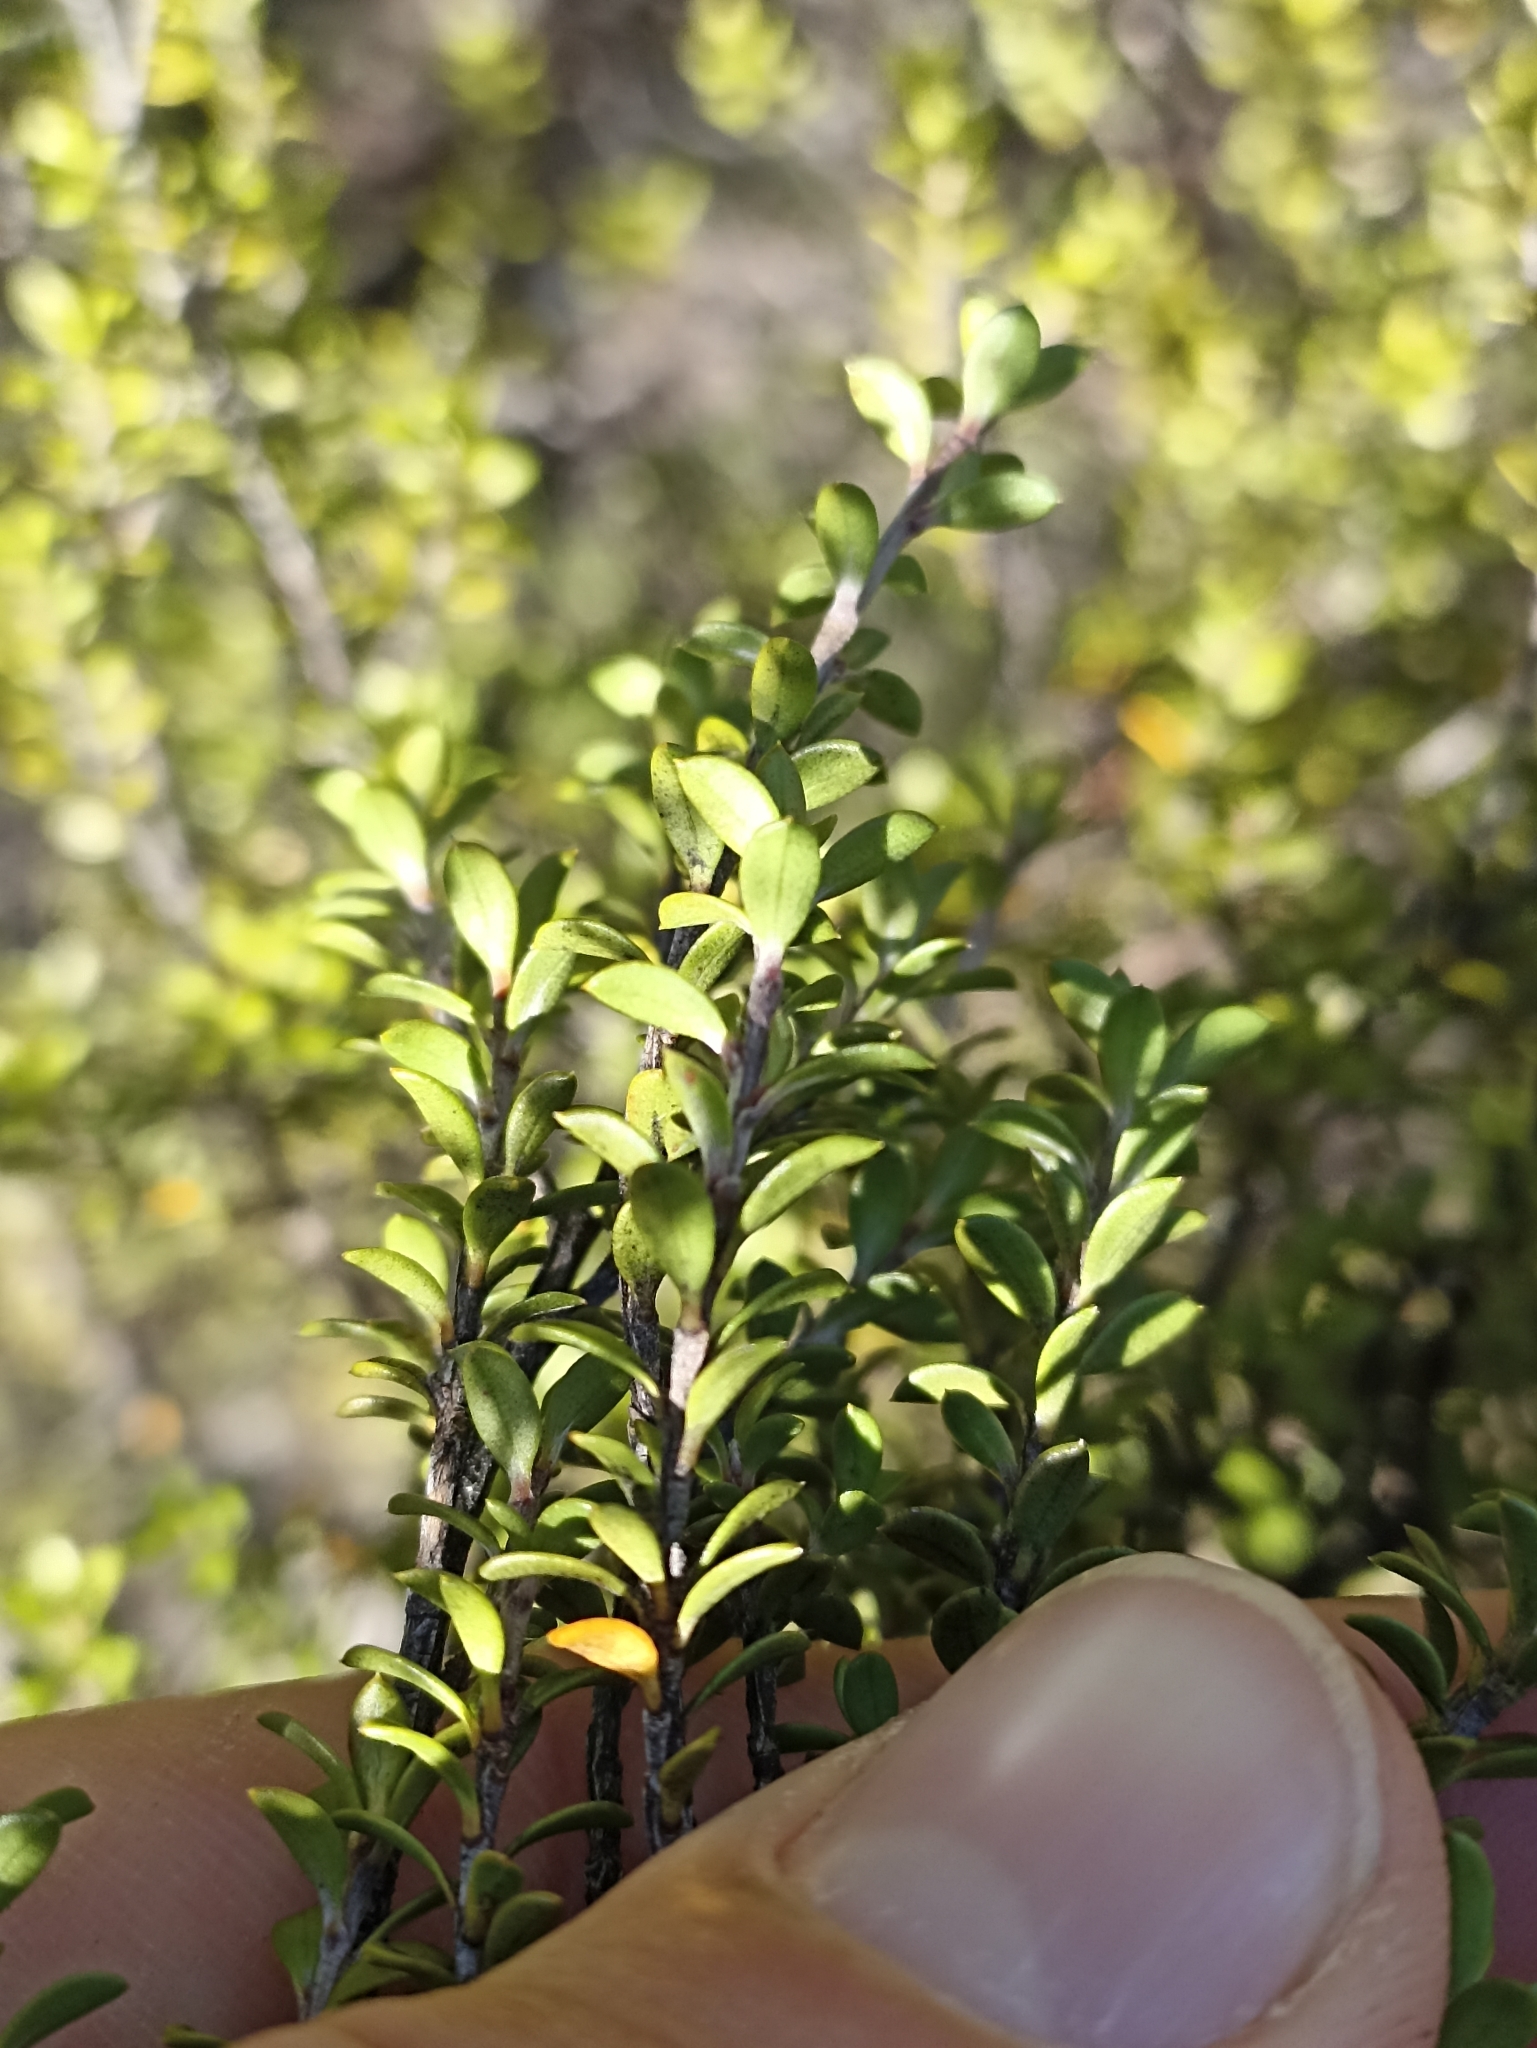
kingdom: Plantae
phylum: Tracheophyta
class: Magnoliopsida
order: Myrtales
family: Myrtaceae
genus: Leptospermum
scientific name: Leptospermum scoparium
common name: Broom tea-tree
